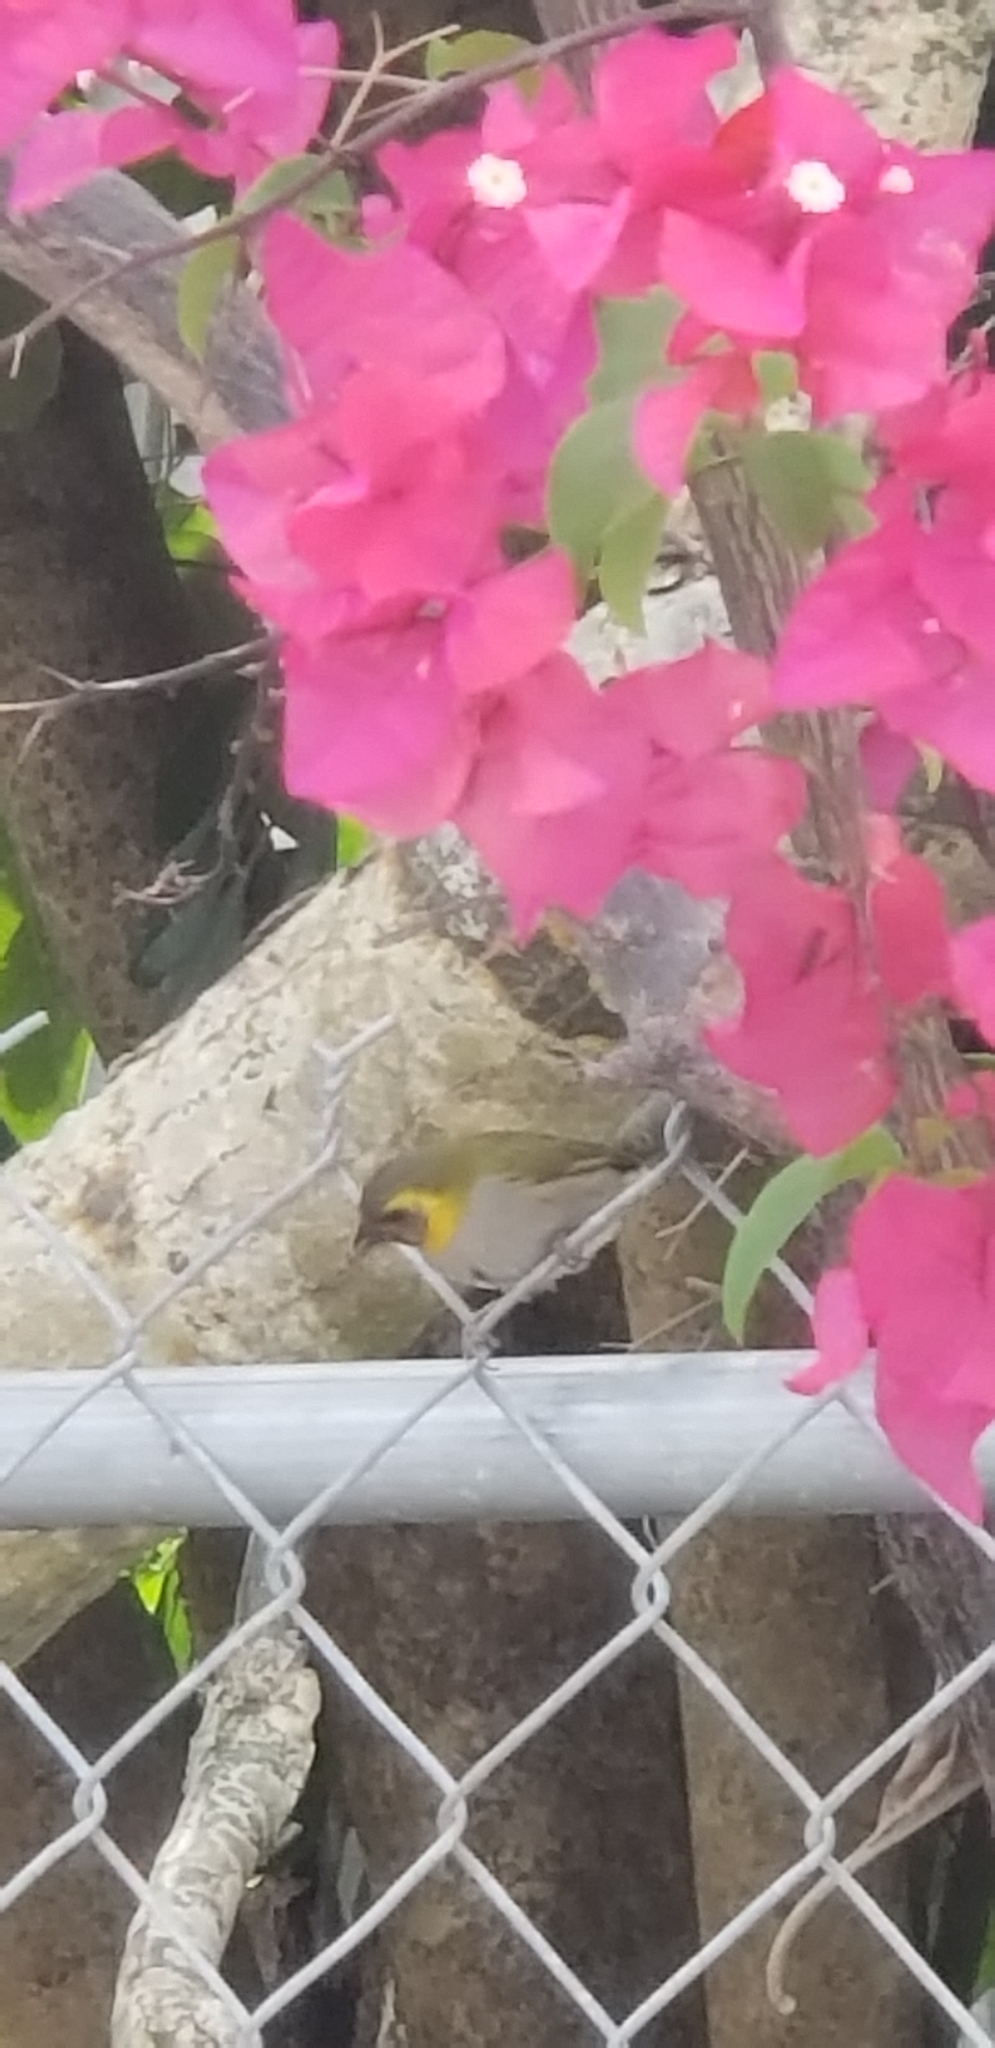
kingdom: Animalia
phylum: Chordata
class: Aves
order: Passeriformes
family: Thraupidae
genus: Phonipara
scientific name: Phonipara canora
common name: Cuban grassquit
